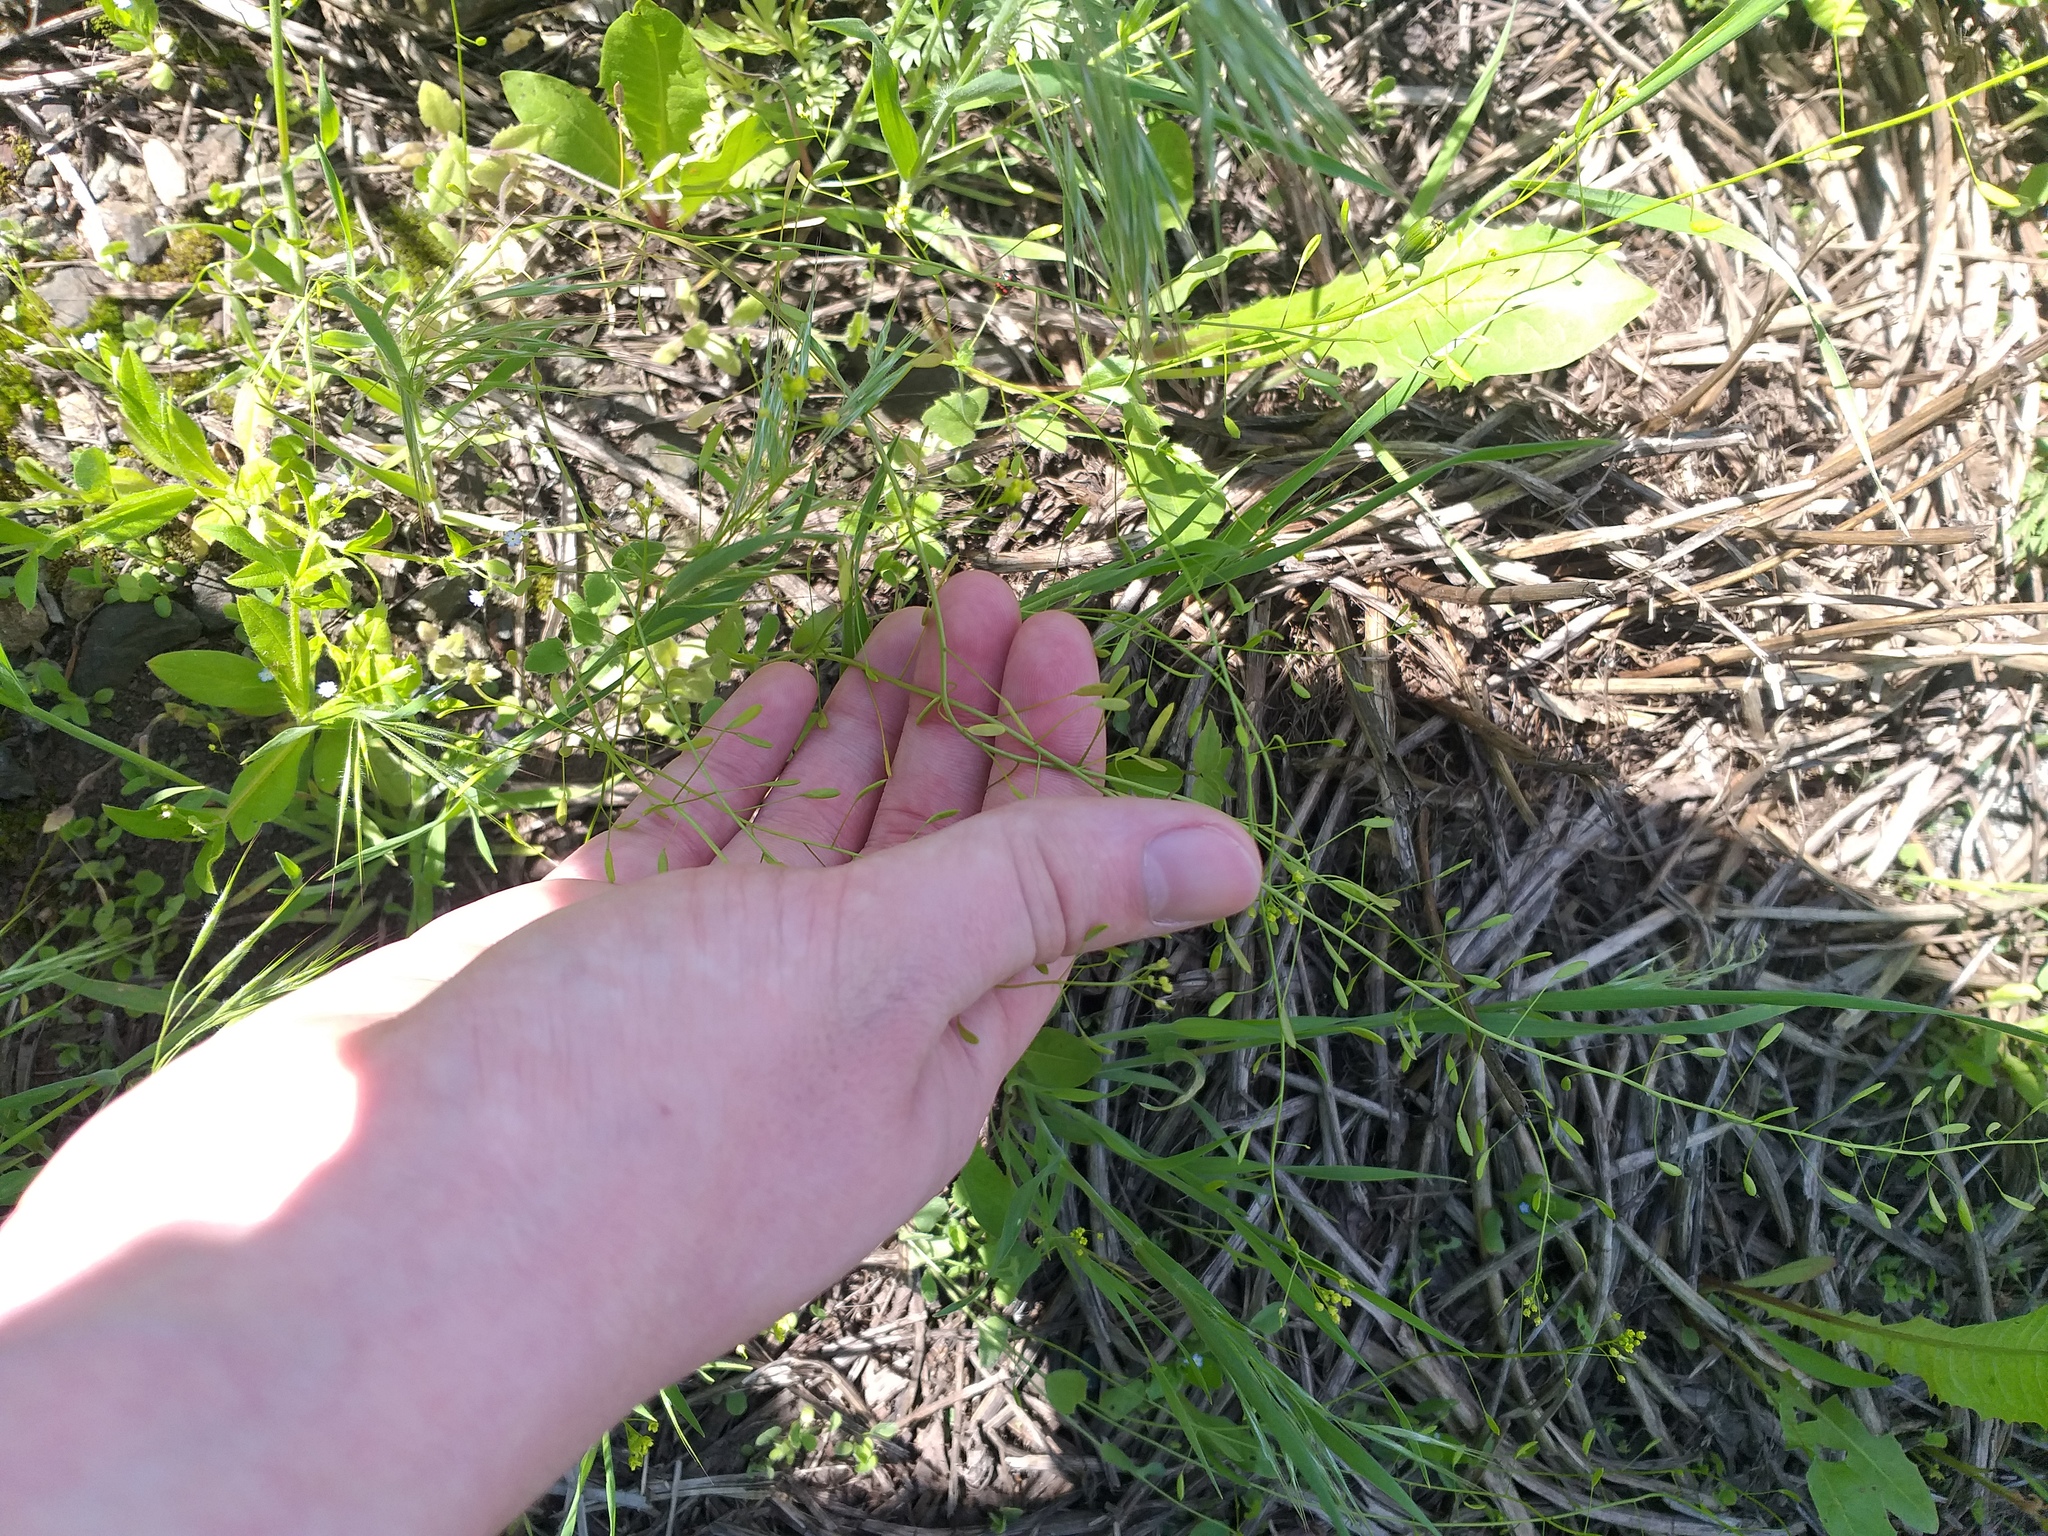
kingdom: Plantae
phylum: Tracheophyta
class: Magnoliopsida
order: Brassicales
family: Brassicaceae
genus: Draba
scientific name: Draba nemorosa
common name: Wood whitlow-grass
